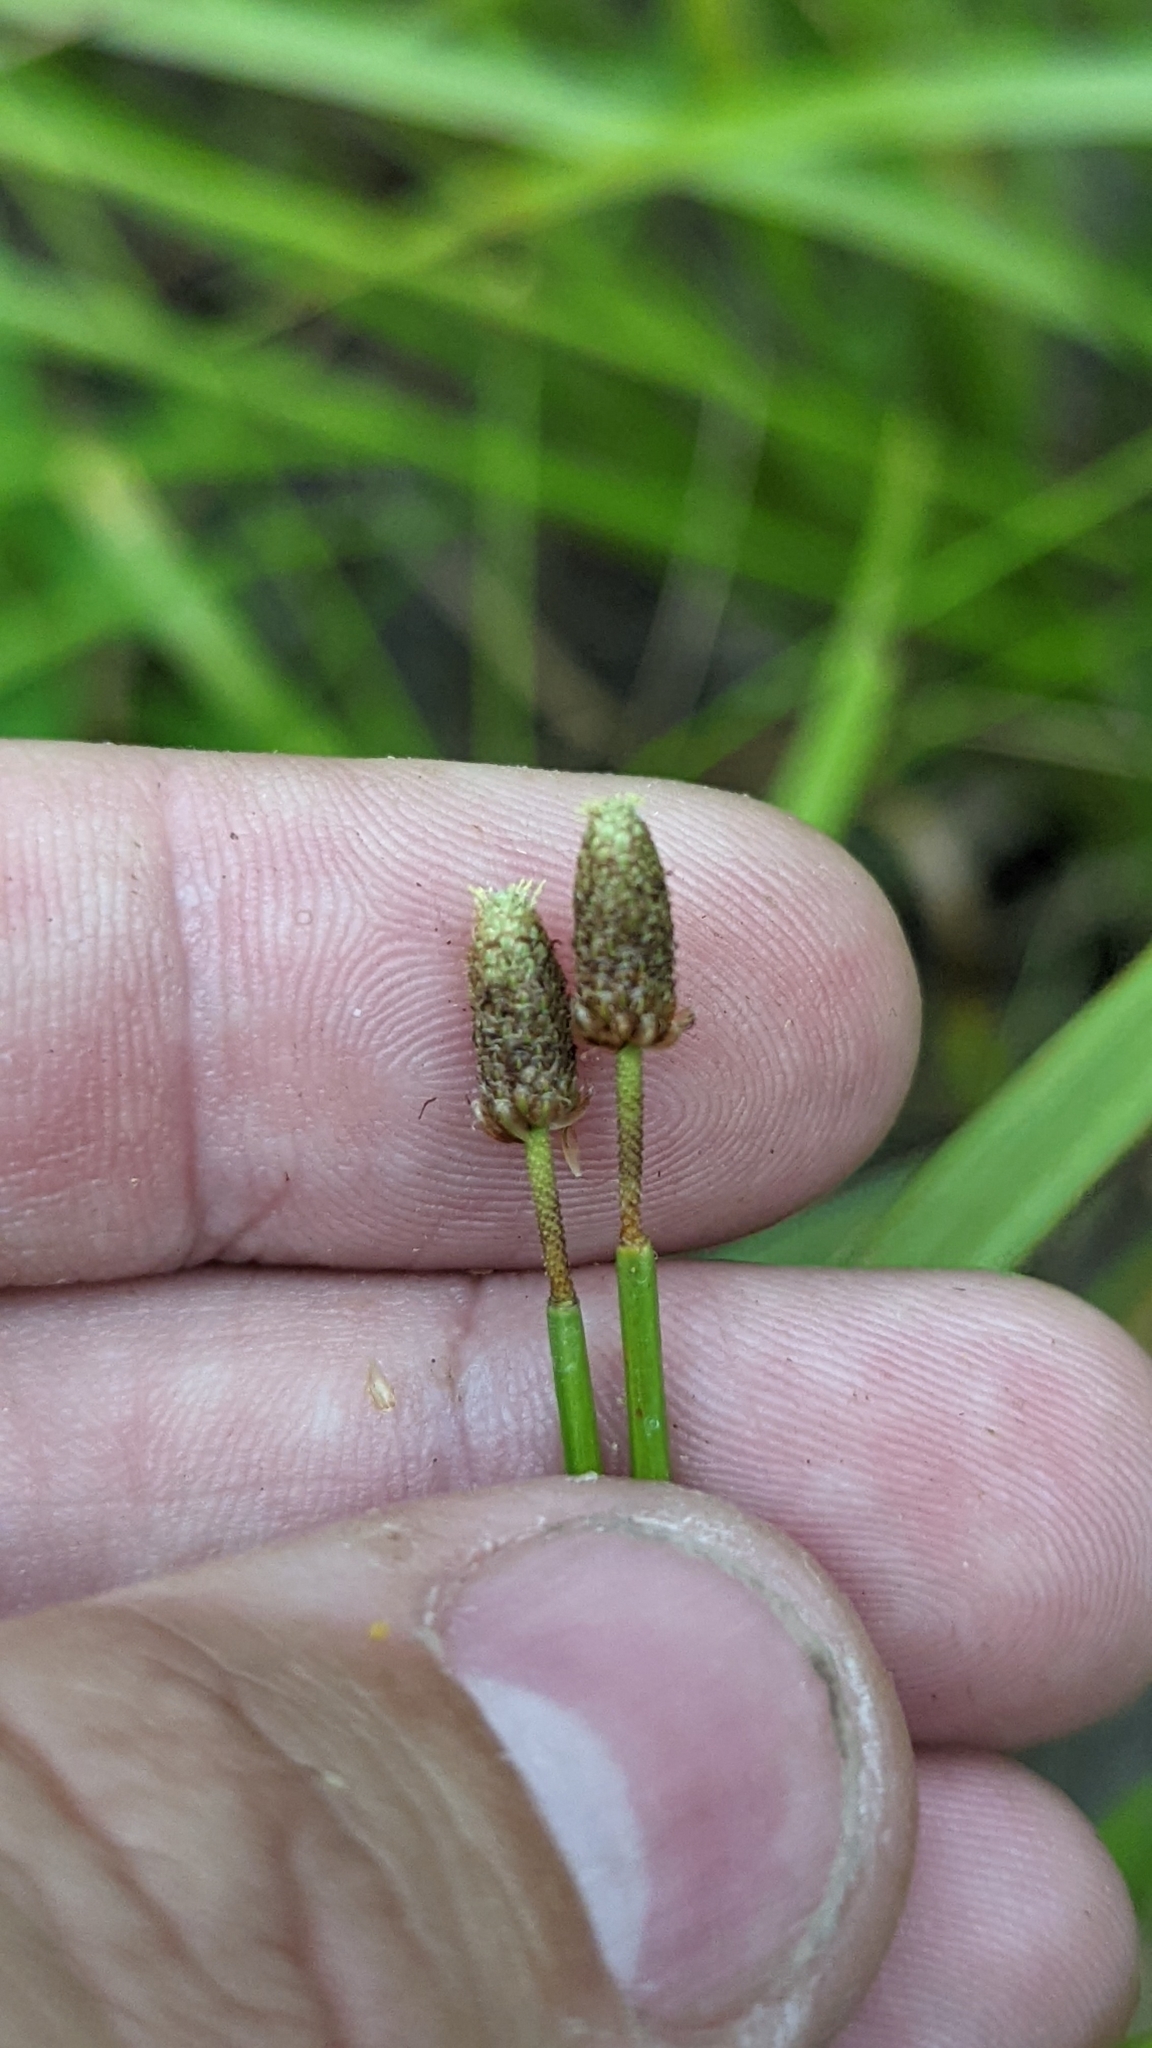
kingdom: Plantae
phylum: Tracheophyta
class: Liliopsida
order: Poales
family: Cyperaceae
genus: Eleocharis
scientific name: Eleocharis obtusa
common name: Blunt spikerush
